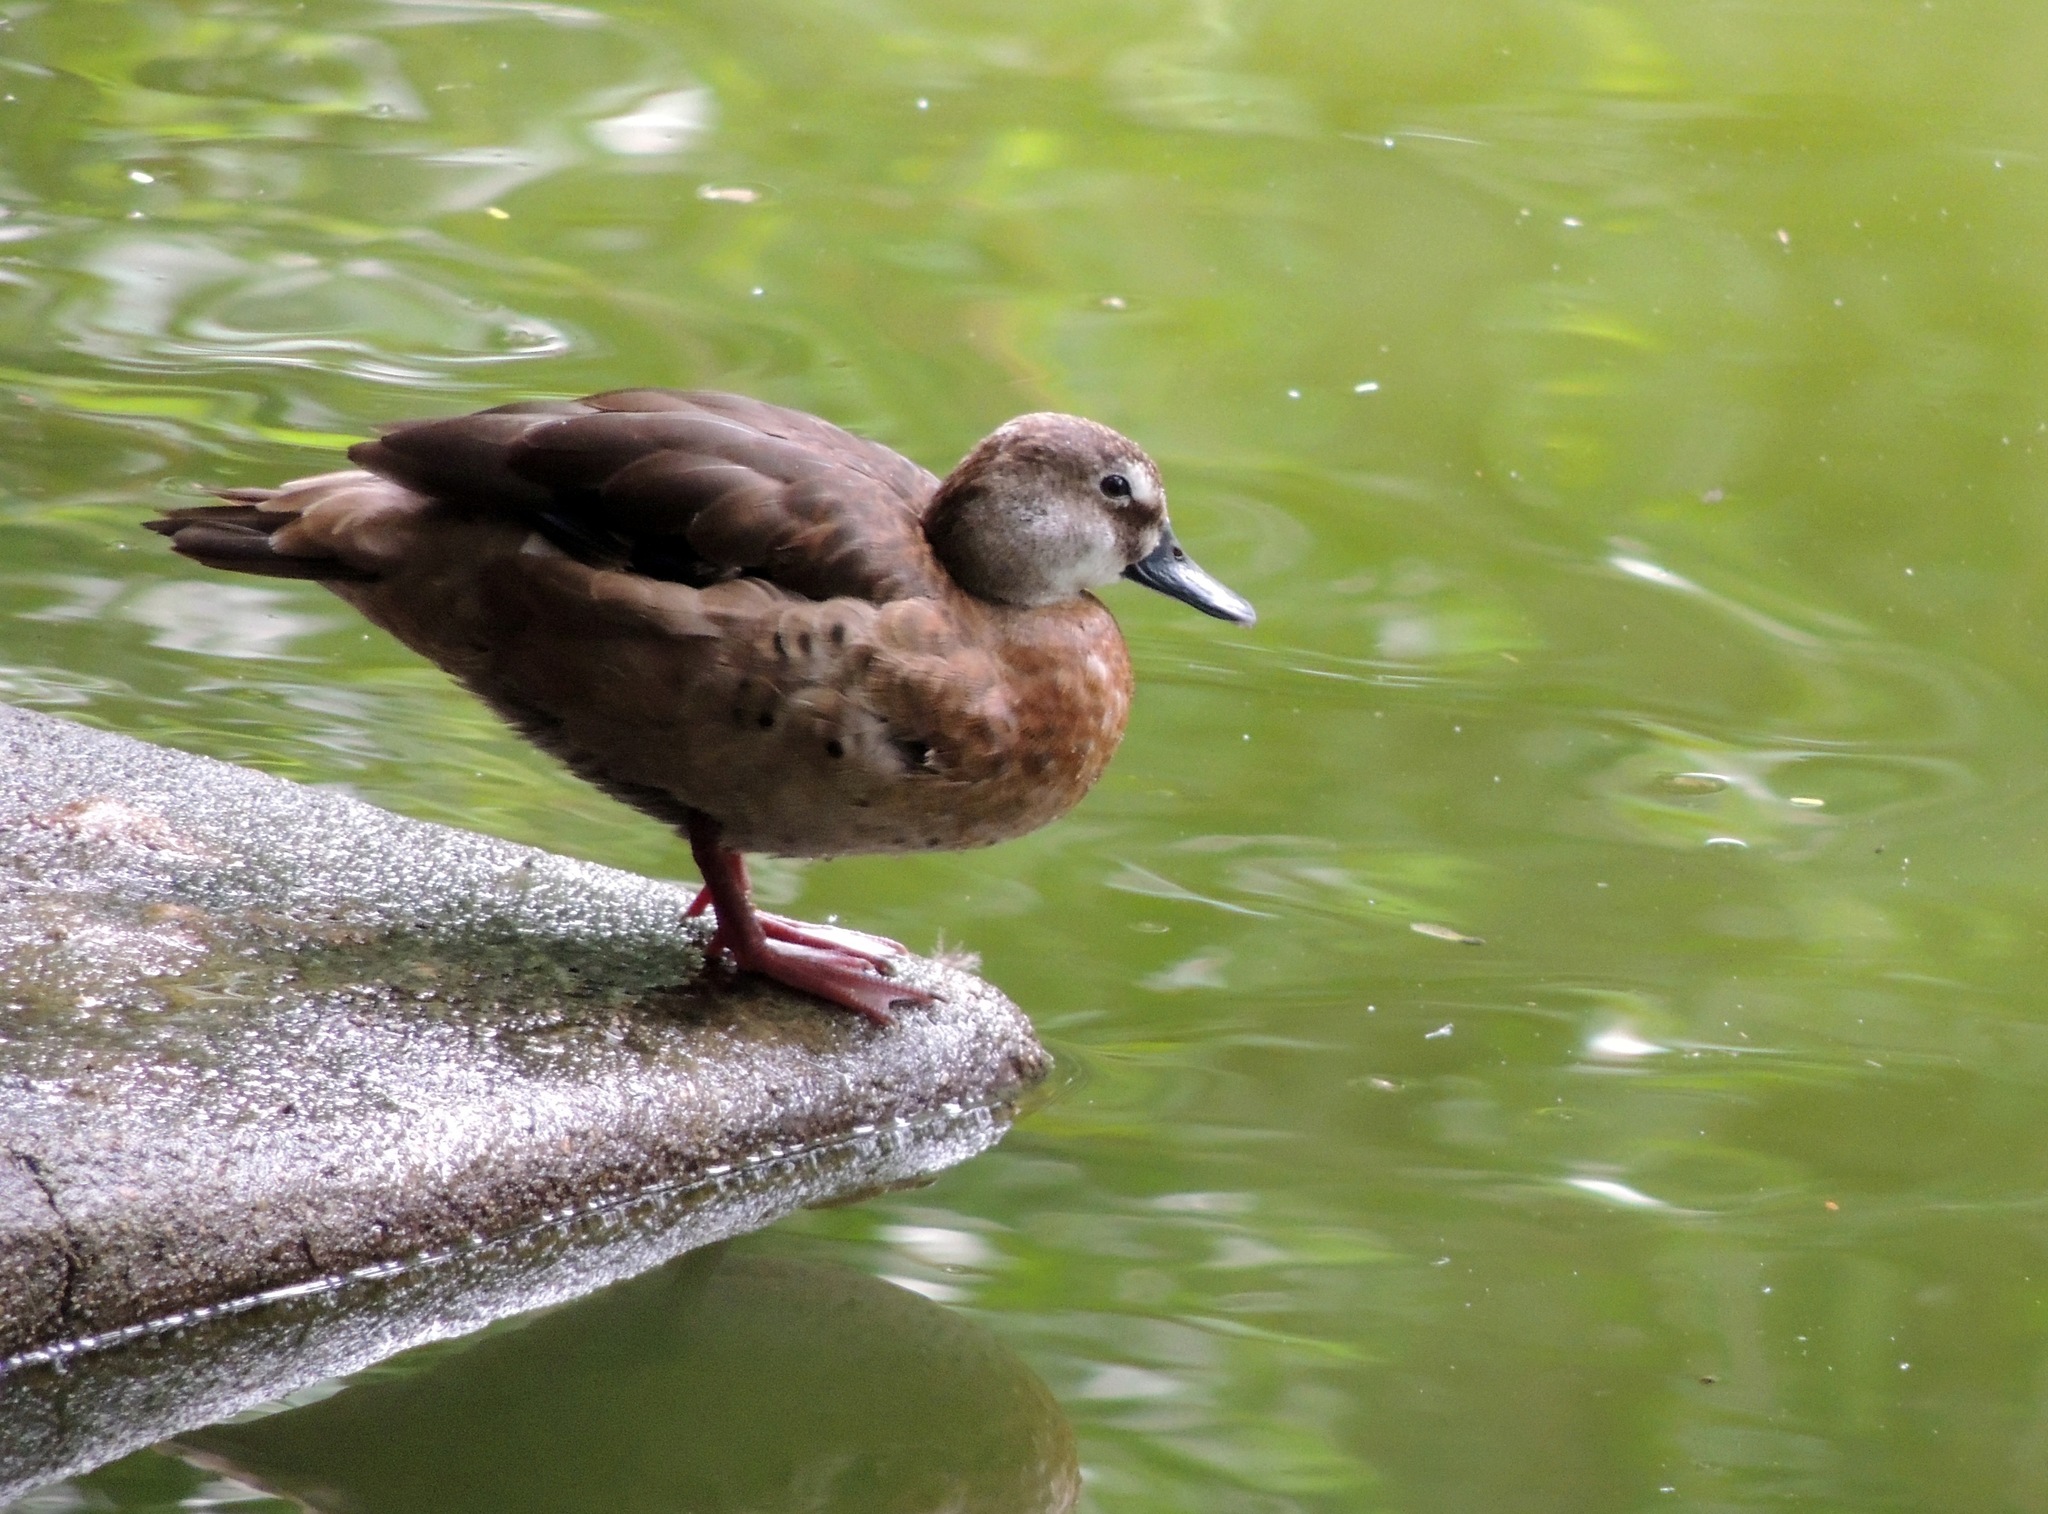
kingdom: Animalia
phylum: Chordata
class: Aves
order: Anseriformes
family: Anatidae
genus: Amazonetta
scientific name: Amazonetta brasiliensis
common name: Brazilian teal
